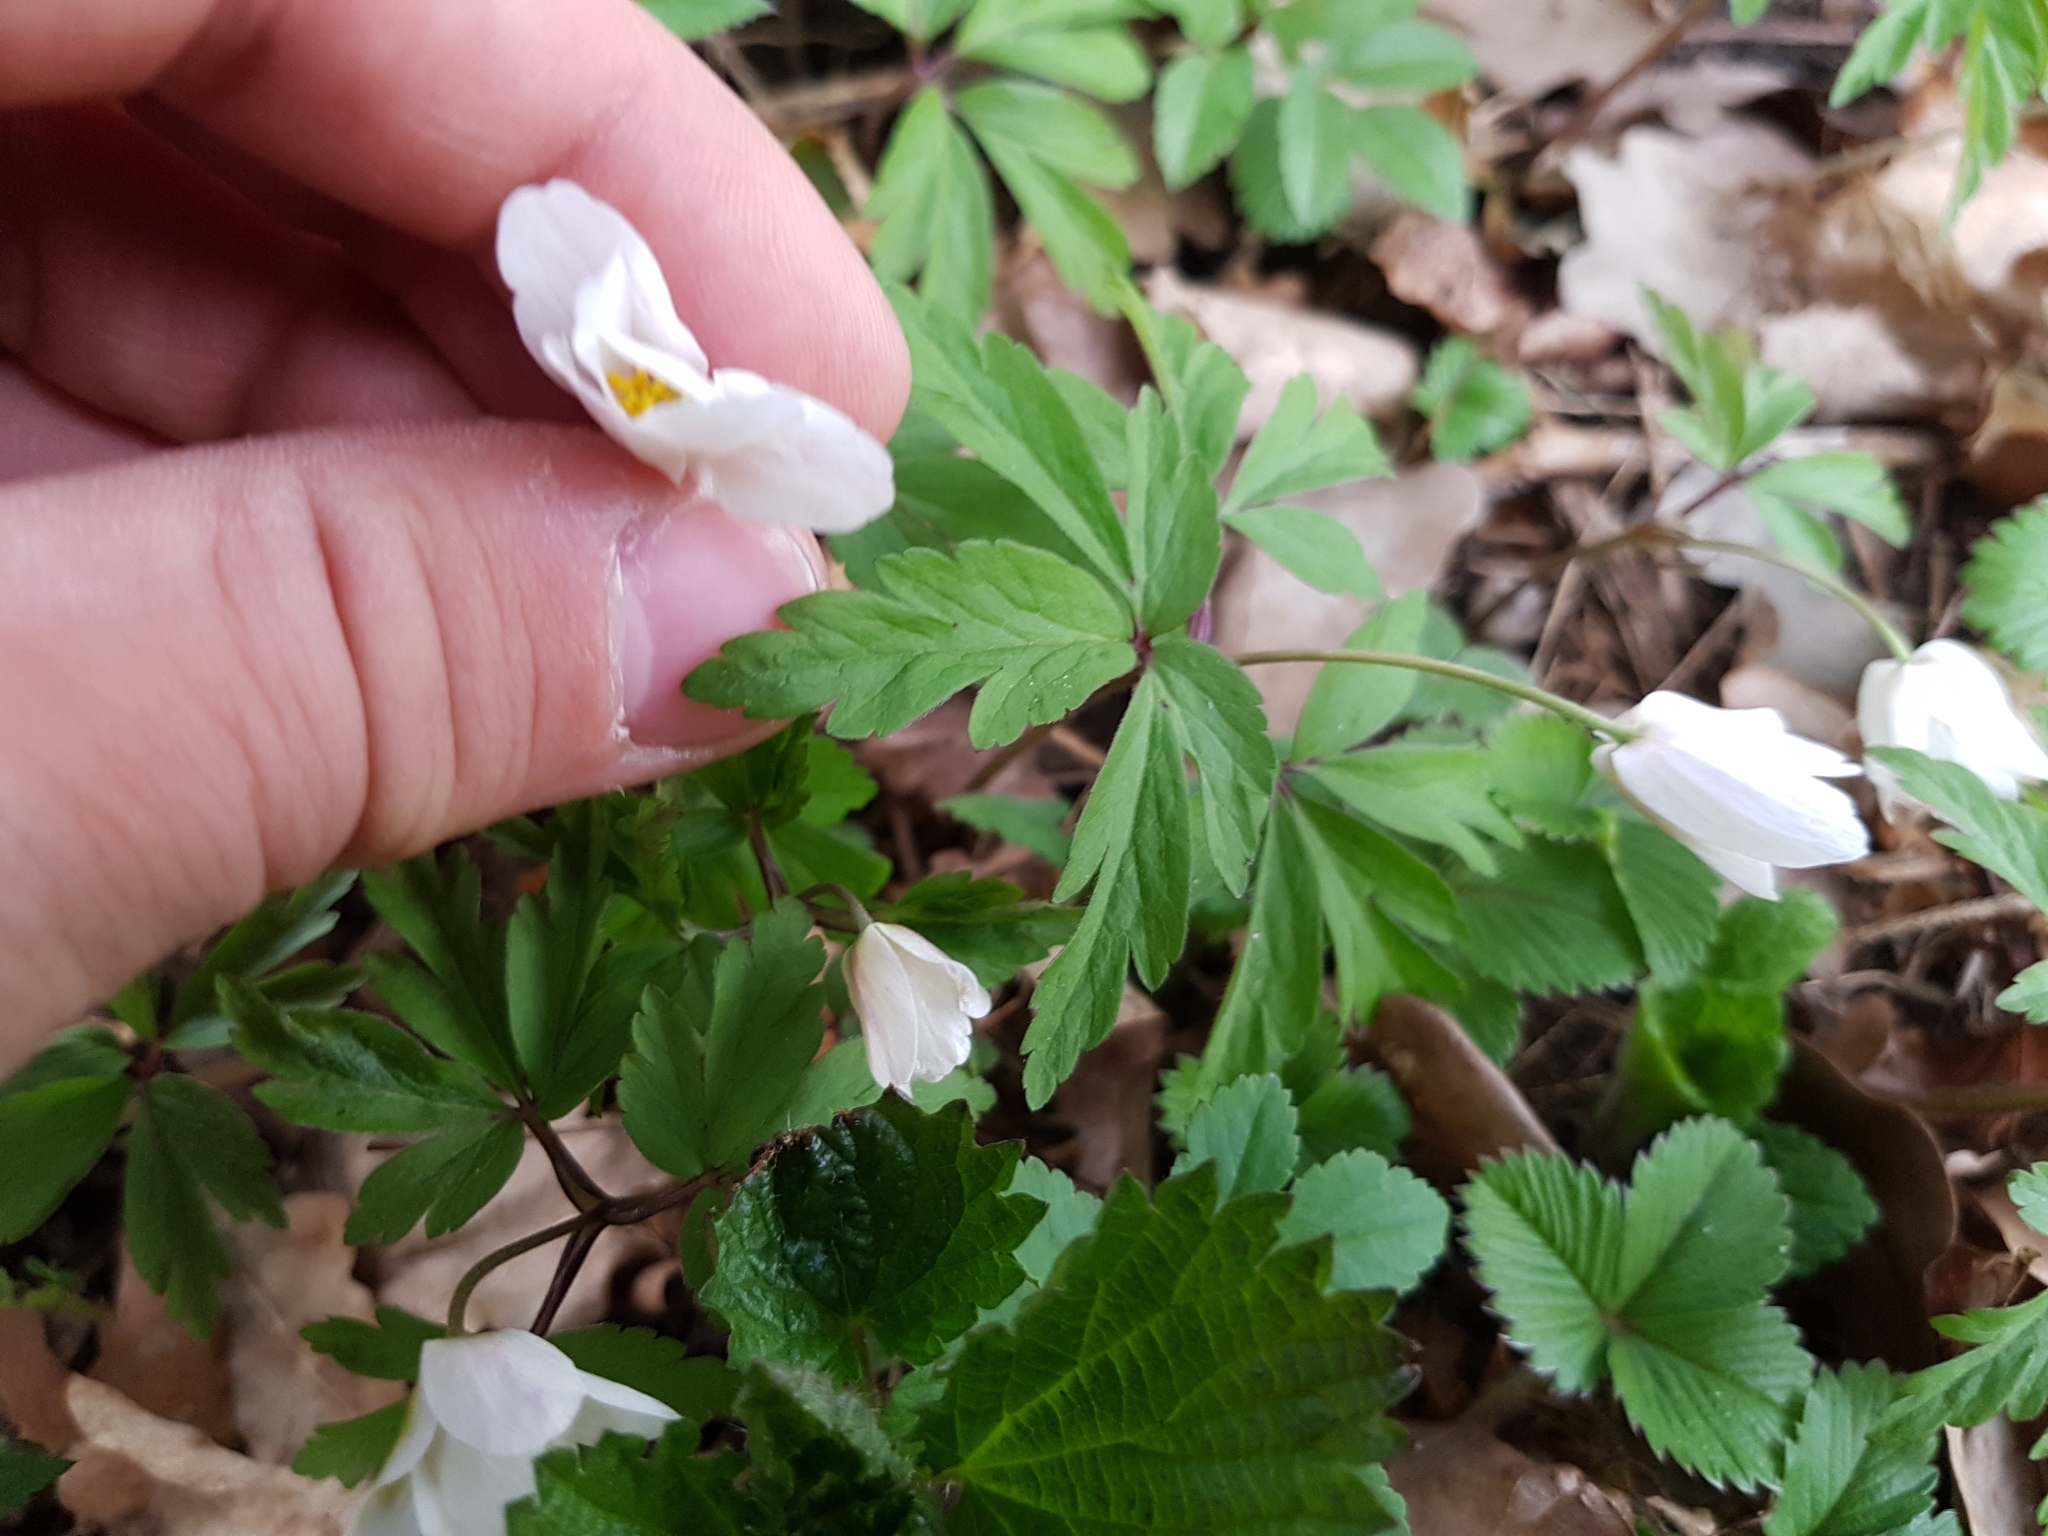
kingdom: Plantae
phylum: Tracheophyta
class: Magnoliopsida
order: Ranunculales
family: Ranunculaceae
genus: Anemone
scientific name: Anemone nemorosa
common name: Wood anemone
